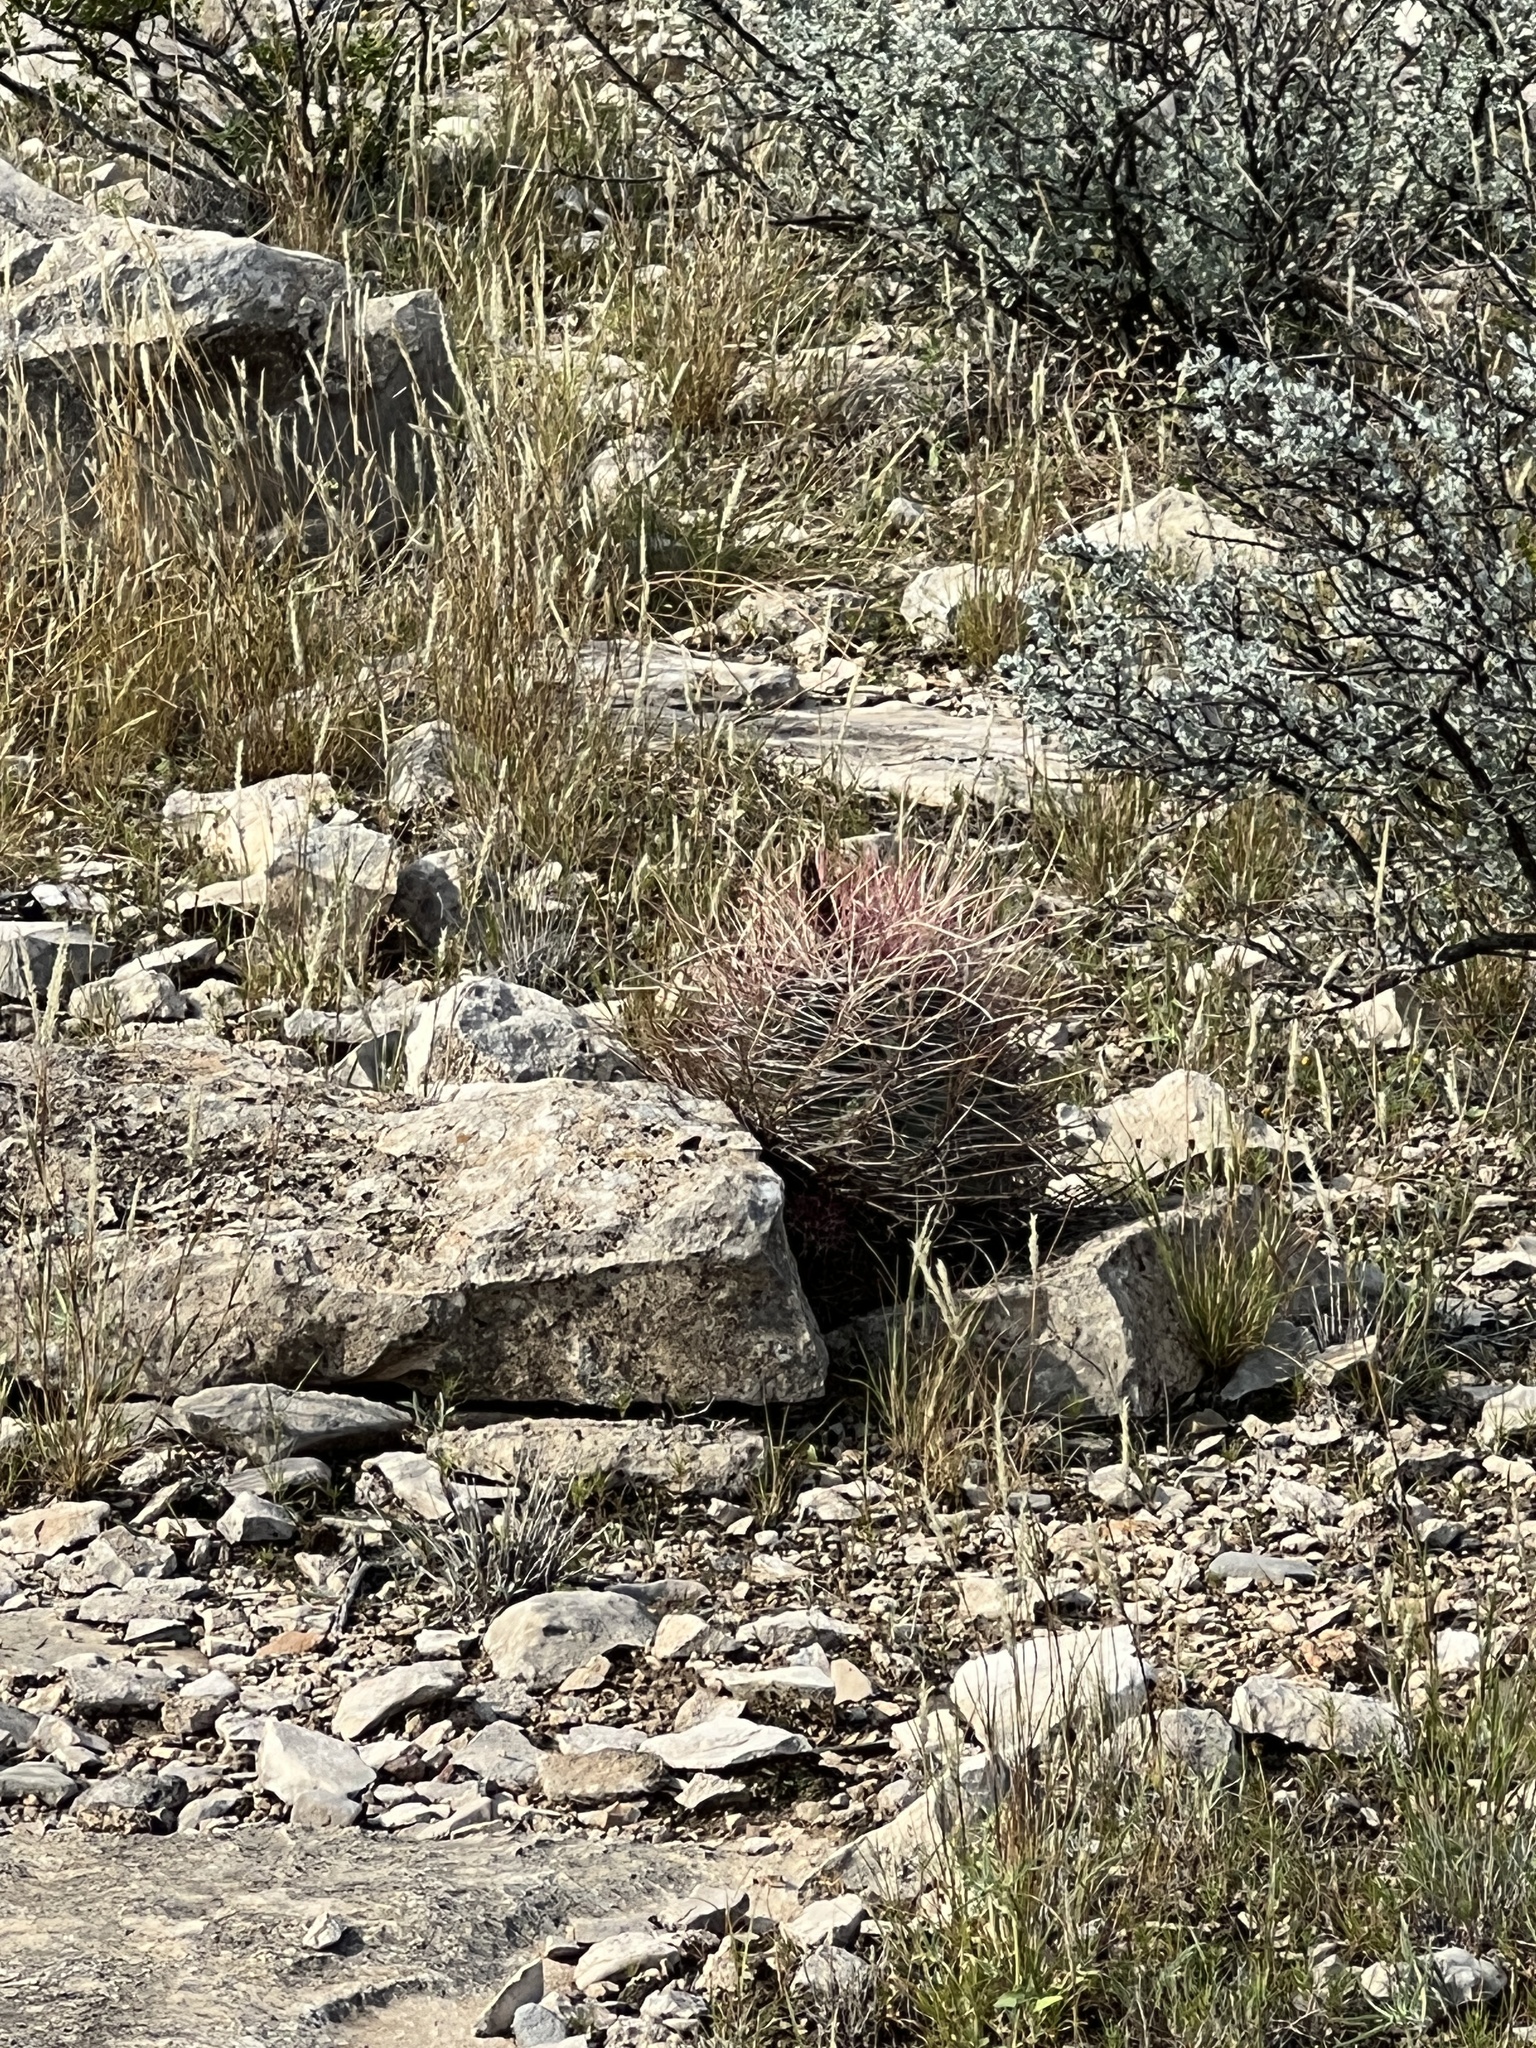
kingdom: Plantae
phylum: Tracheophyta
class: Magnoliopsida
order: Caryophyllales
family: Cactaceae
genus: Bisnaga
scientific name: Bisnaga hamatacantha
